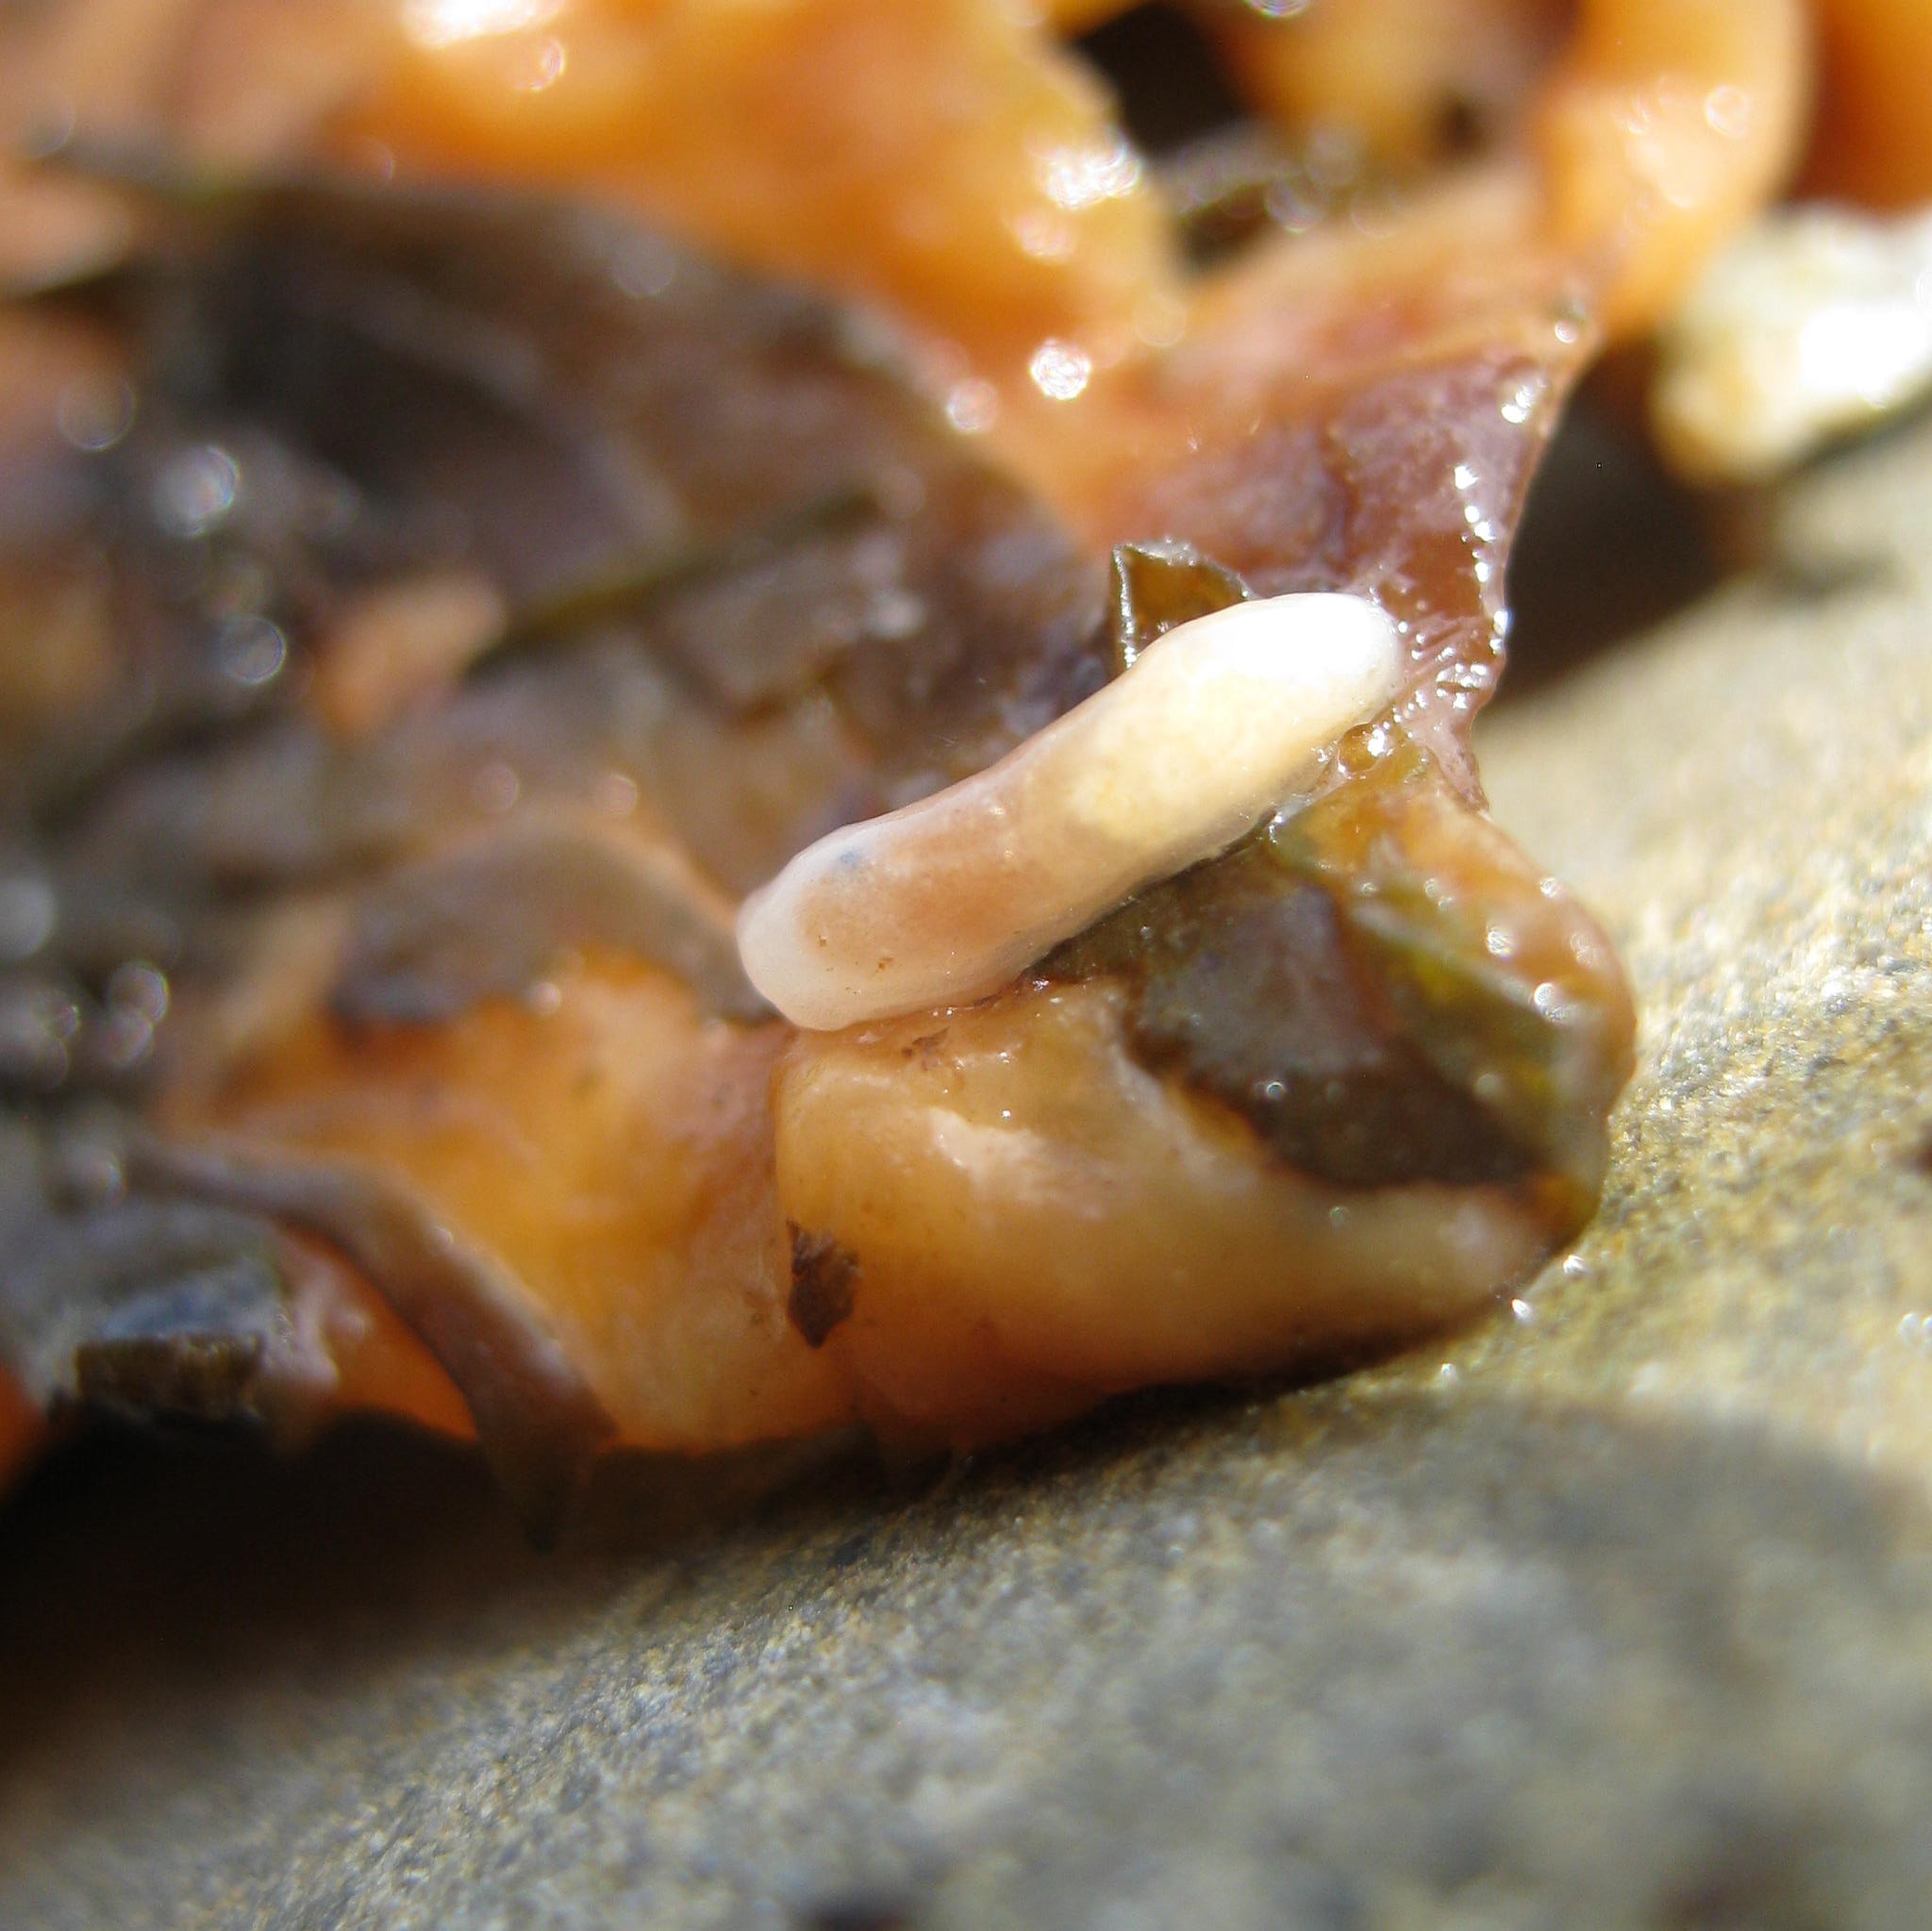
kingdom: Animalia
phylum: Mollusca
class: Gastropoda
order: Ellobiida
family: Otinidae
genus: Smeagol
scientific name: Smeagol climoi
